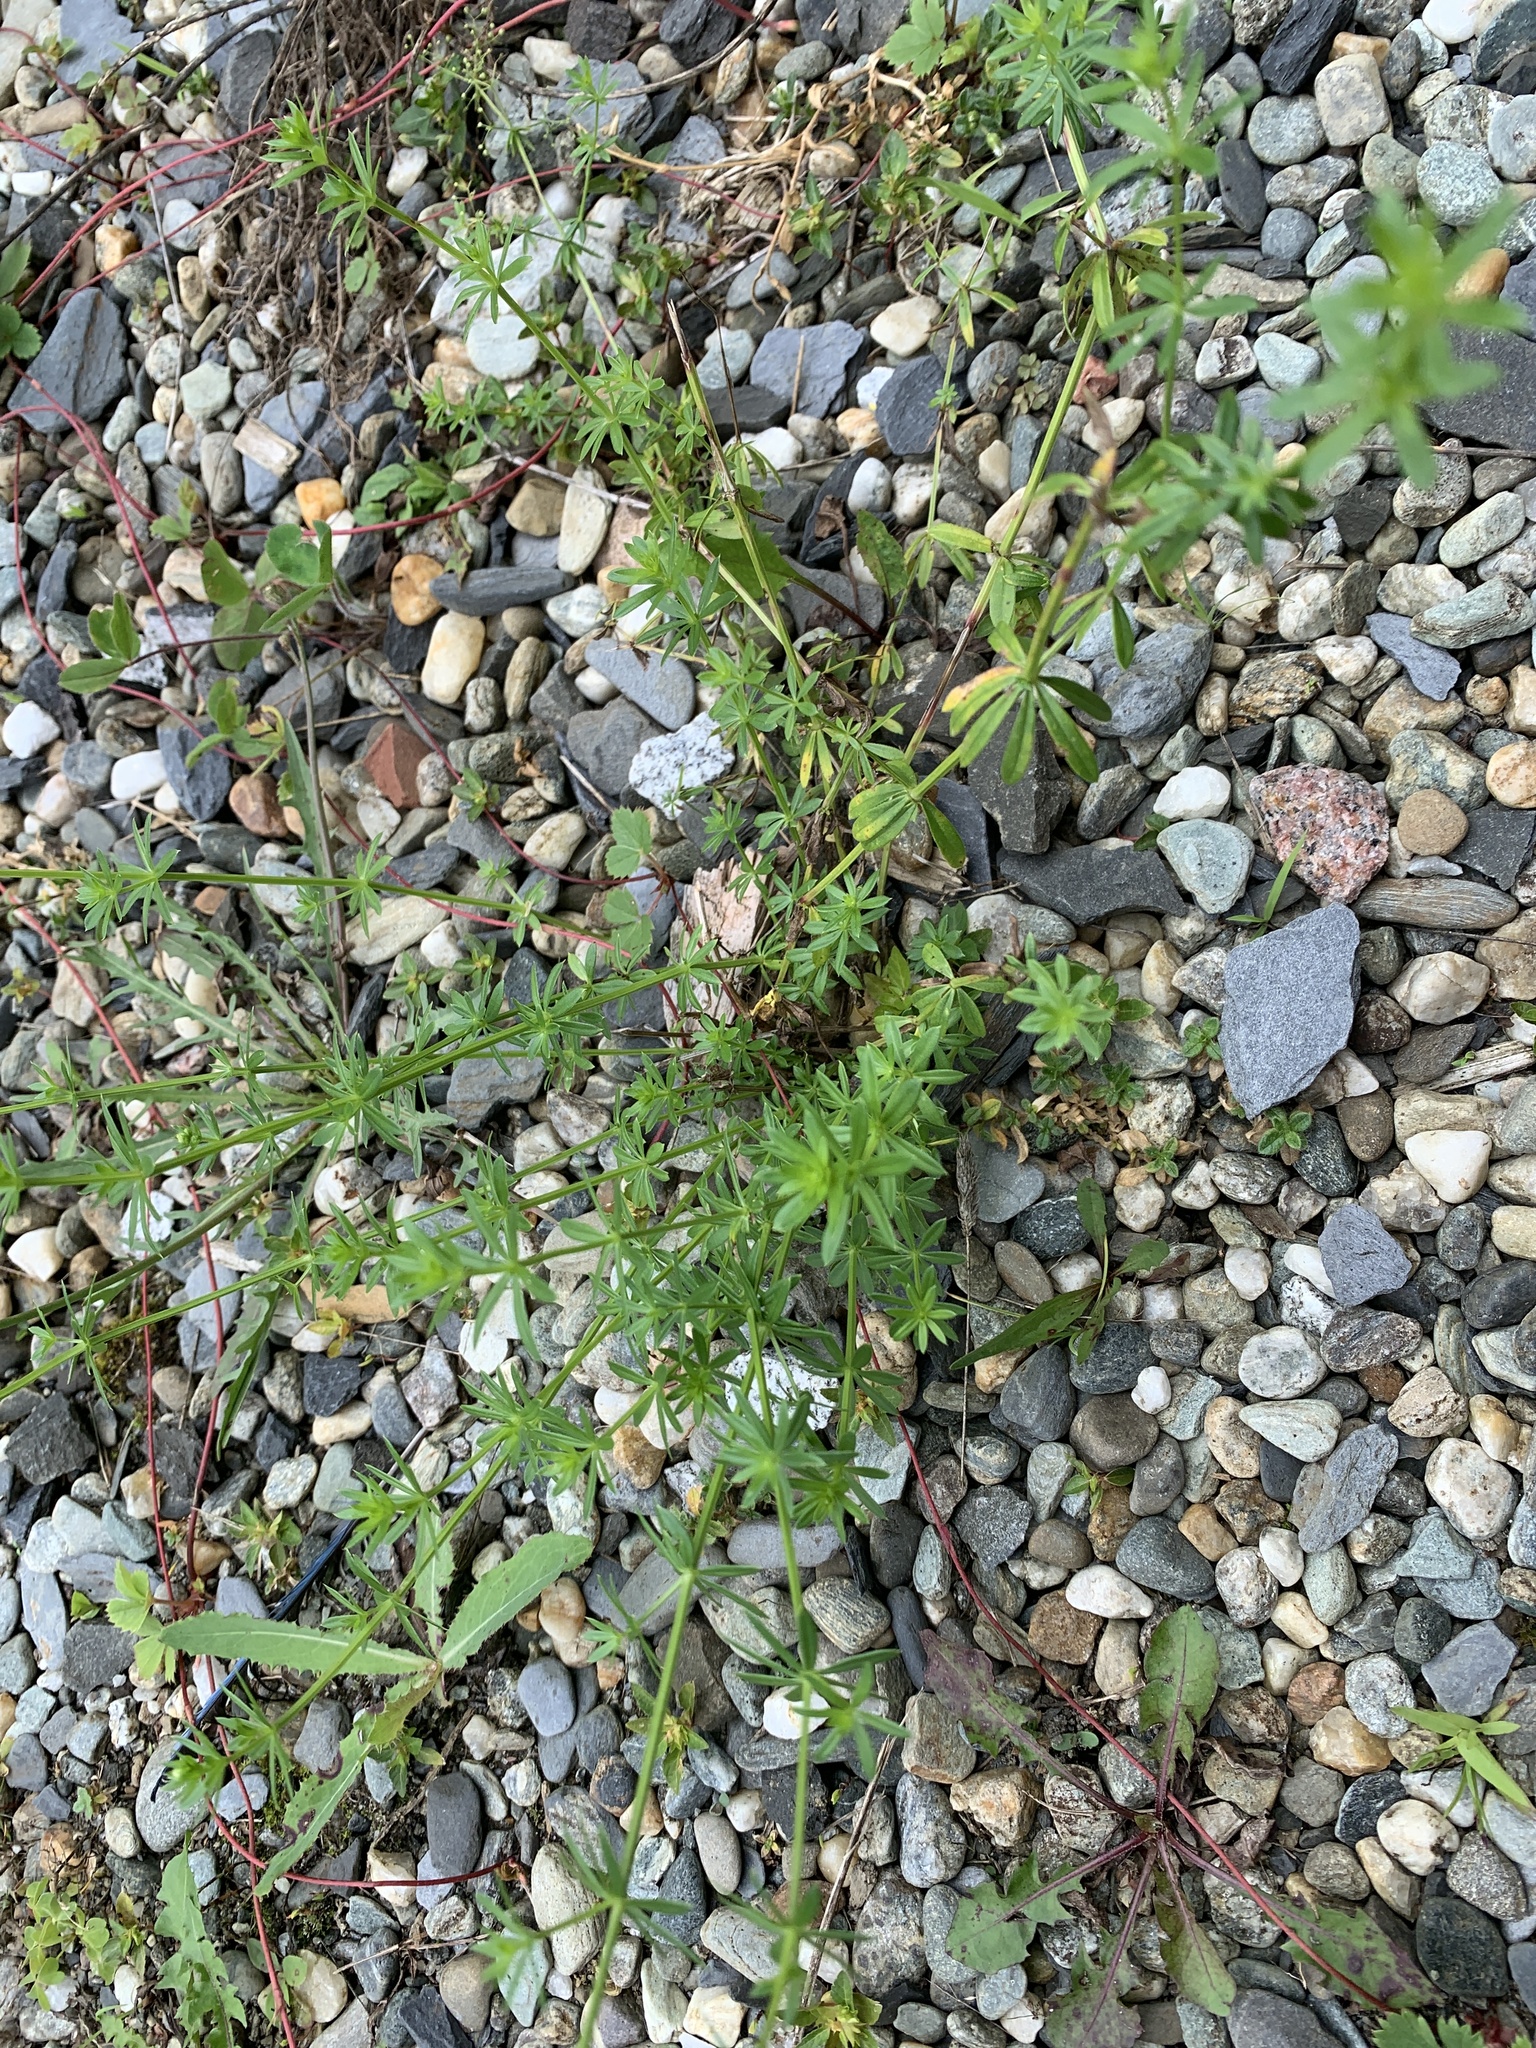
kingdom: Plantae
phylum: Tracheophyta
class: Magnoliopsida
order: Gentianales
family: Rubiaceae
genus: Galium
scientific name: Galium mollugo
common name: Hedge bedstraw
